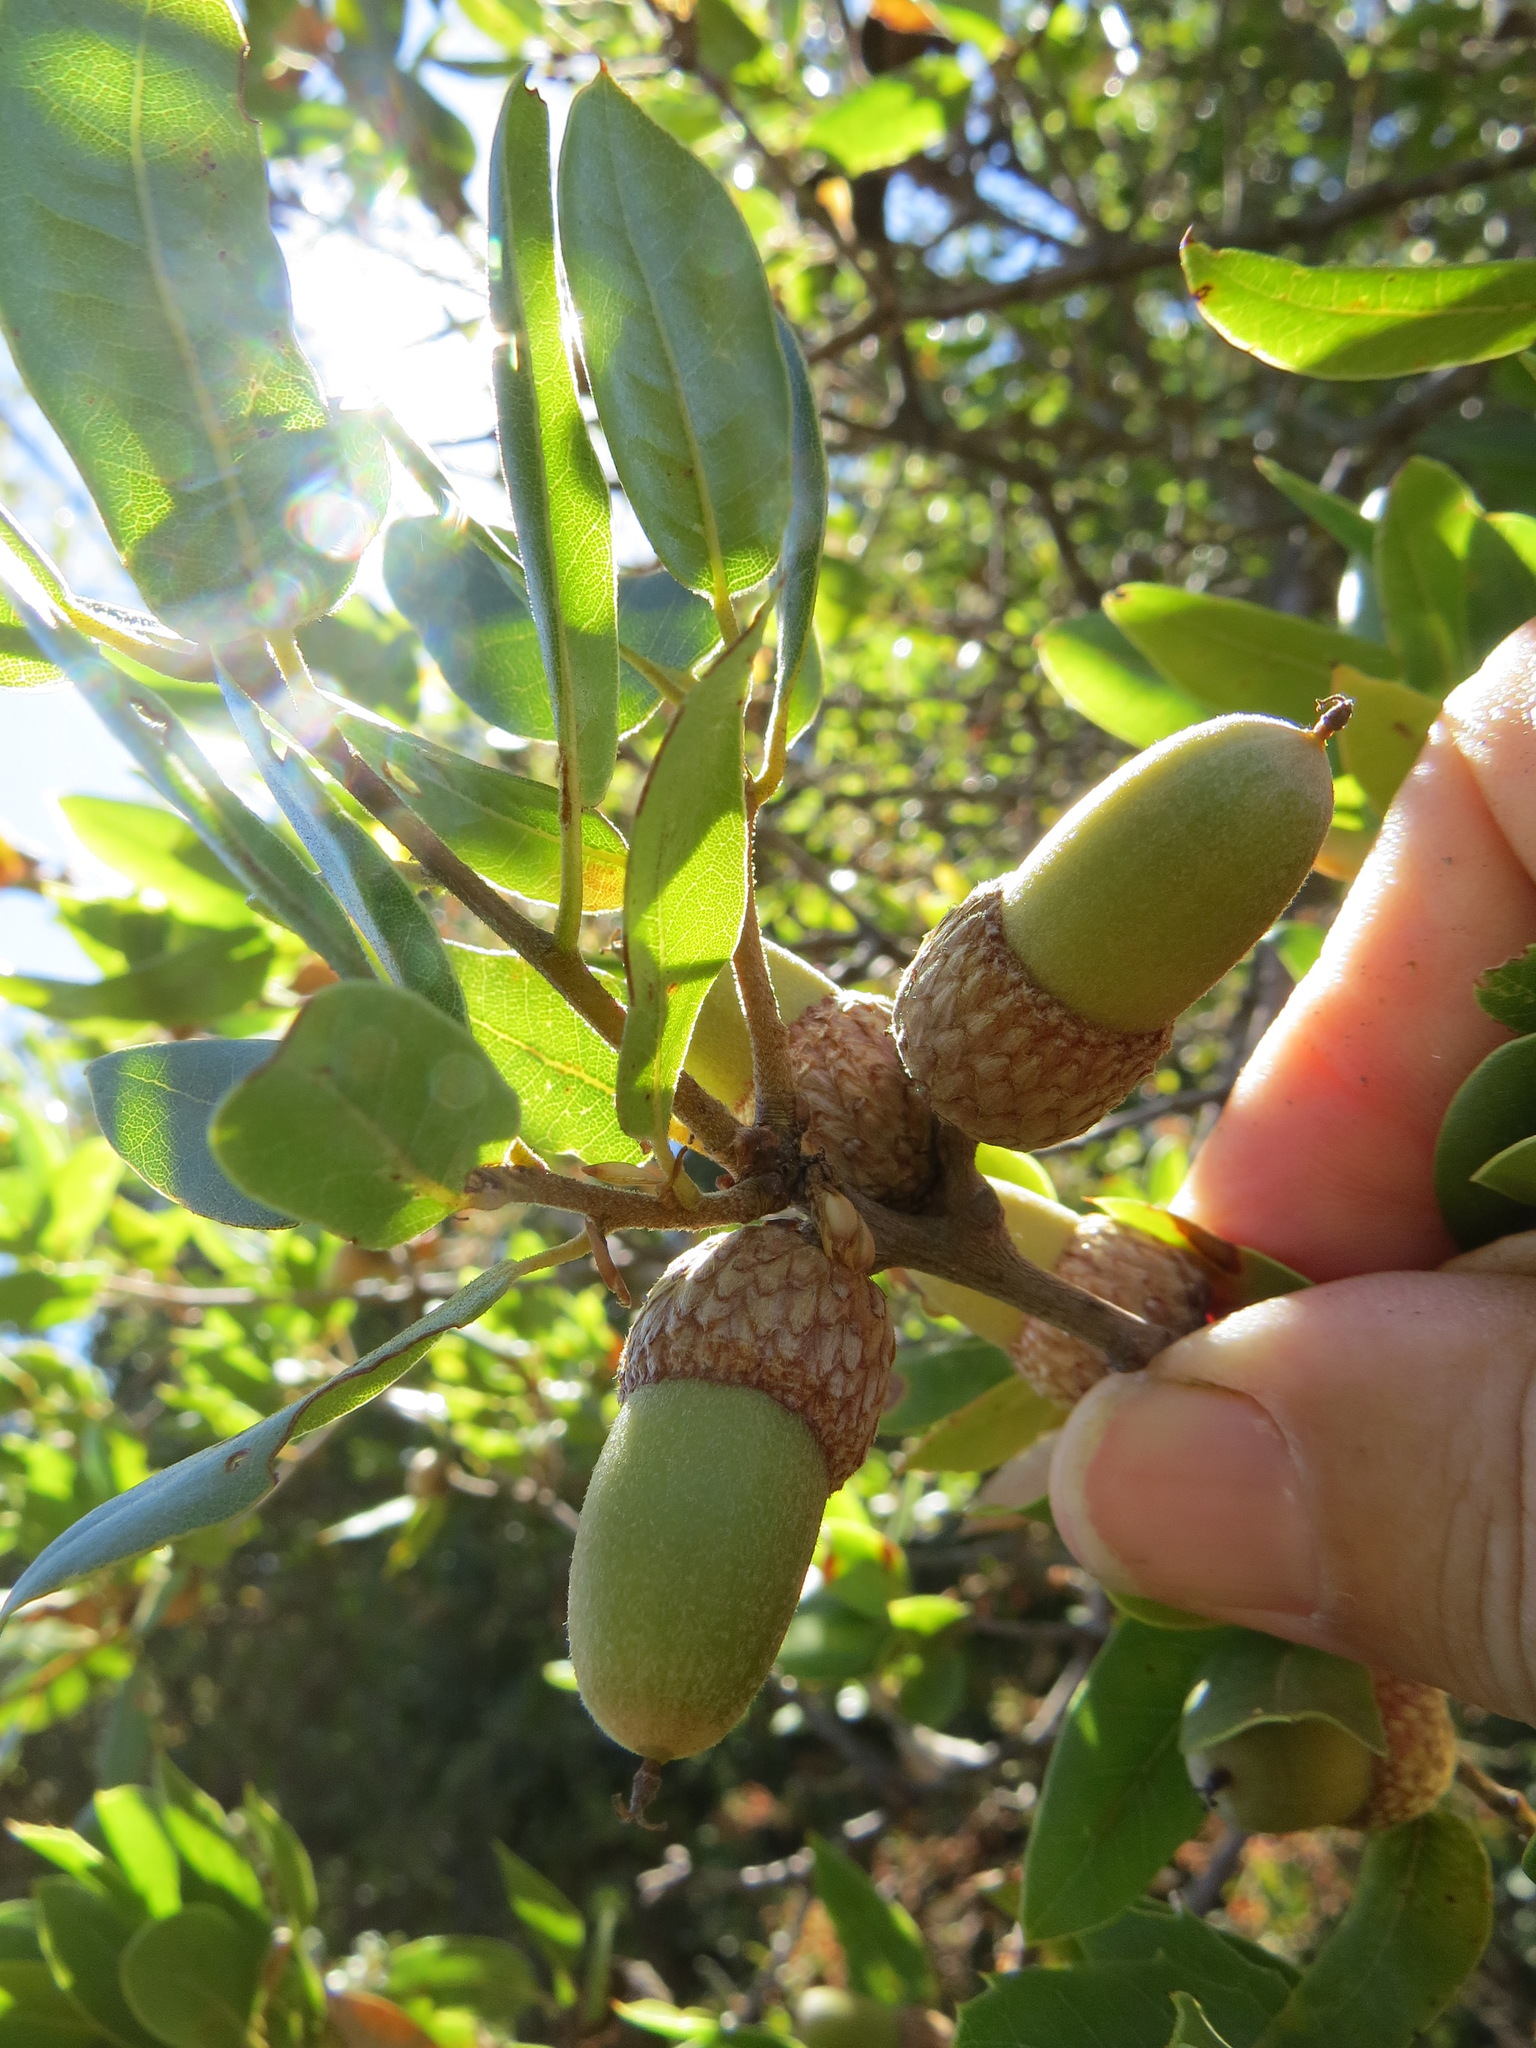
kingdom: Animalia
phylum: Arthropoda
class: Insecta
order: Hymenoptera
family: Cynipidae
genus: Callirhytis
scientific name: Callirhytis
